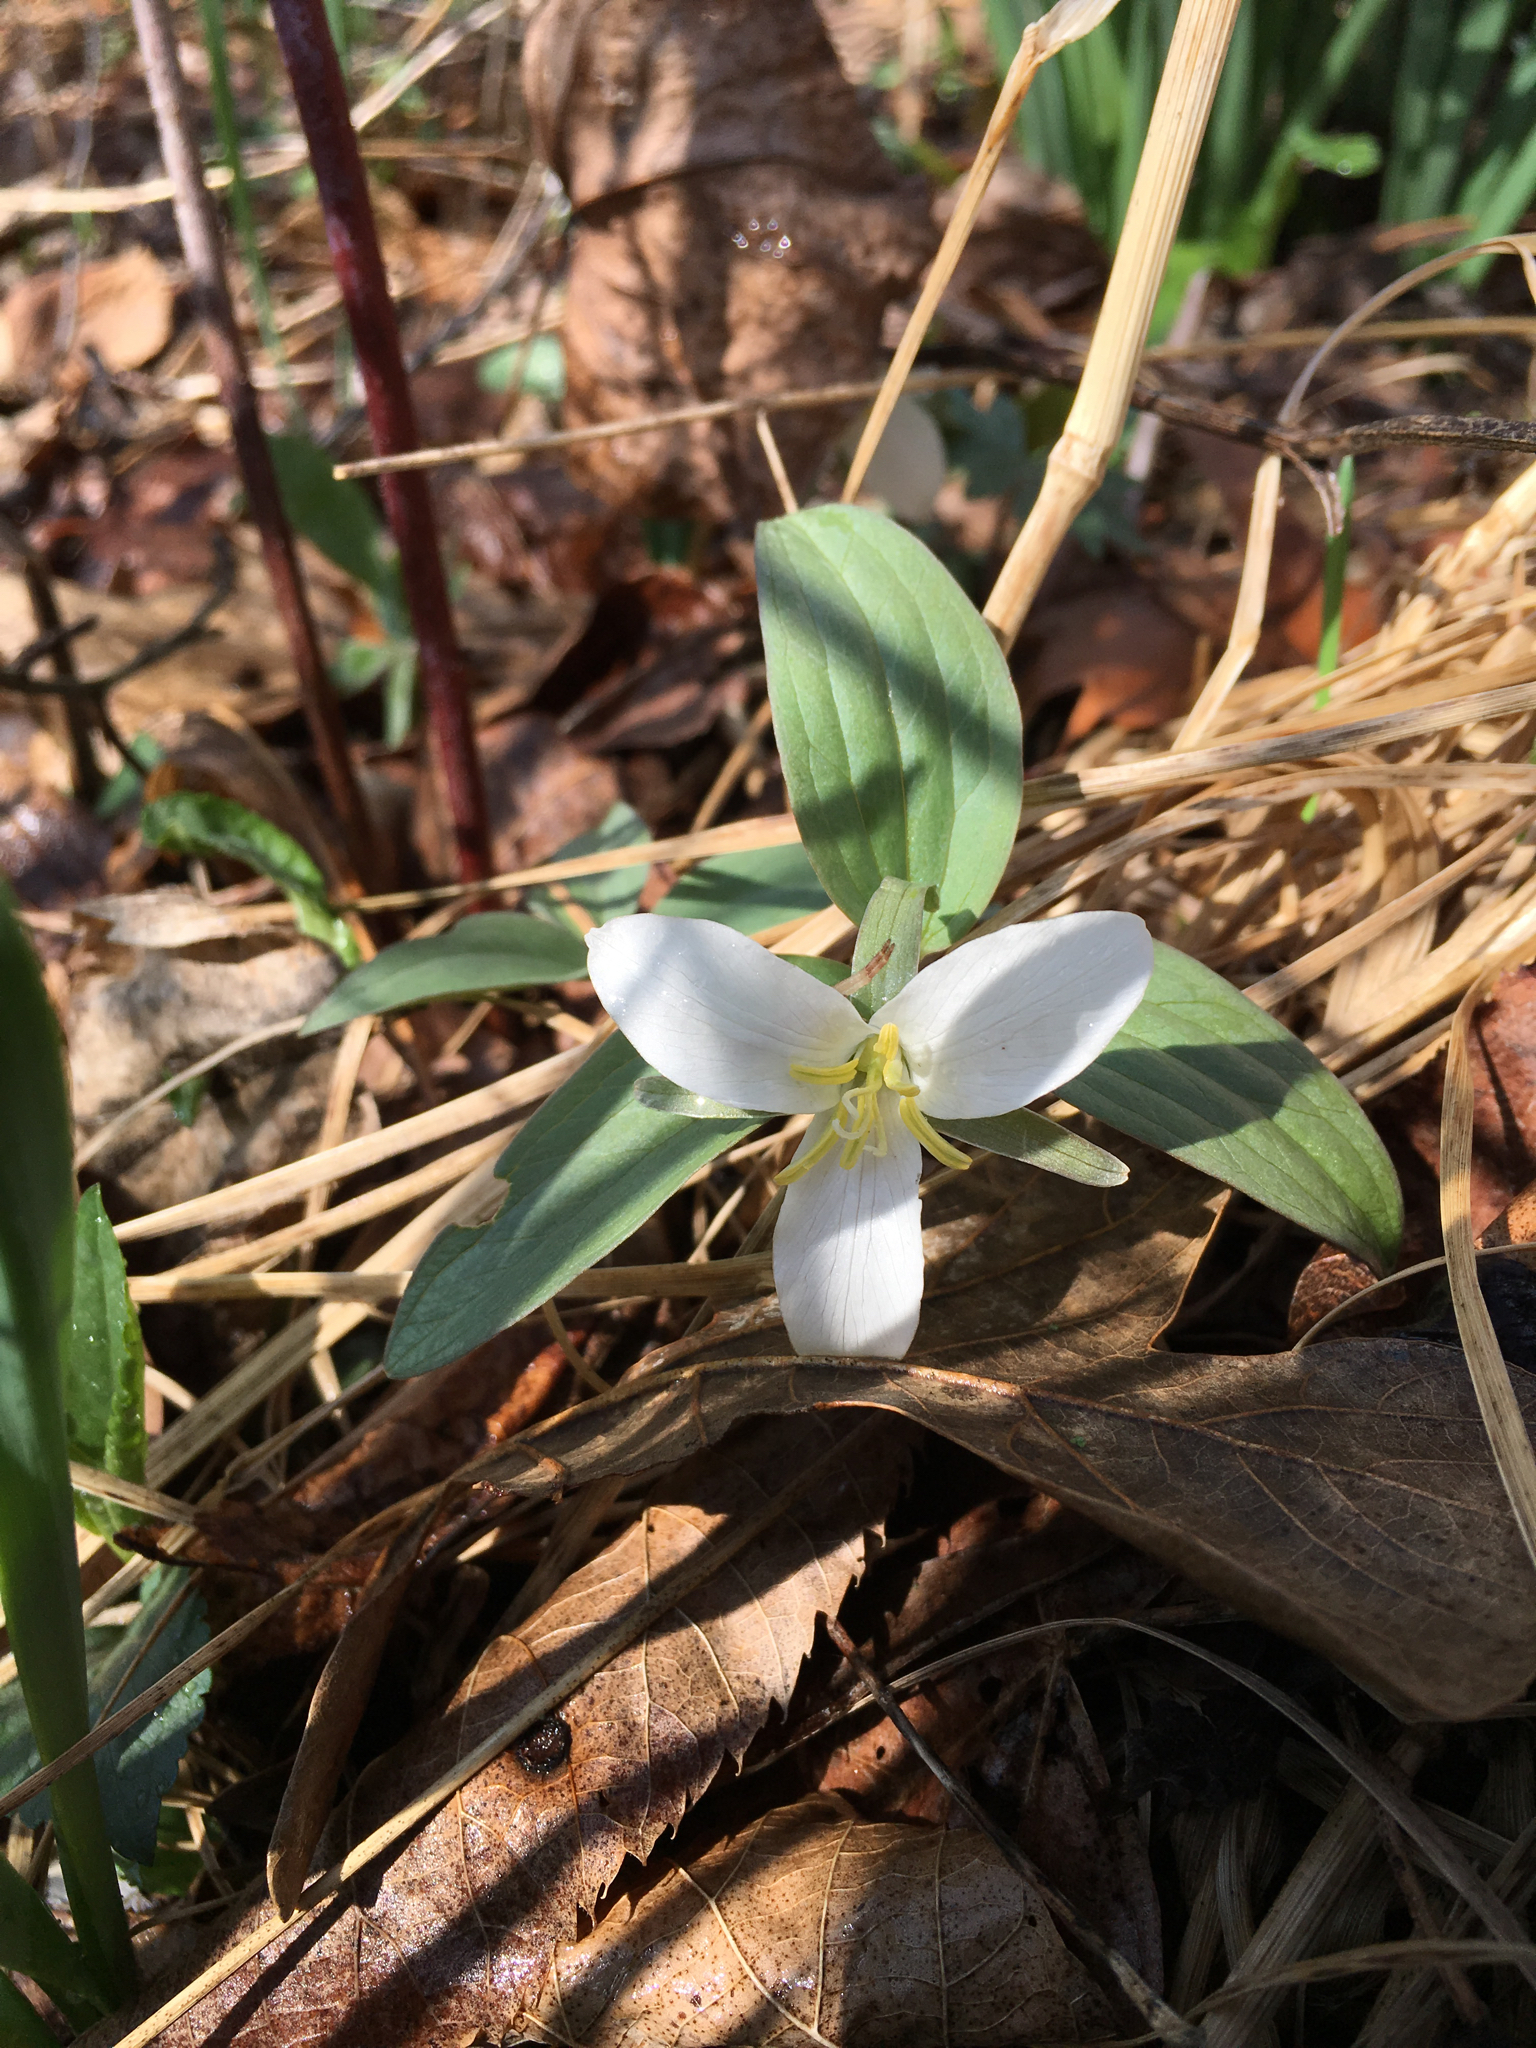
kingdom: Plantae
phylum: Tracheophyta
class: Liliopsida
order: Liliales
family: Melanthiaceae
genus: Trillium
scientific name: Trillium nivale
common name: Dwarf white trillium
